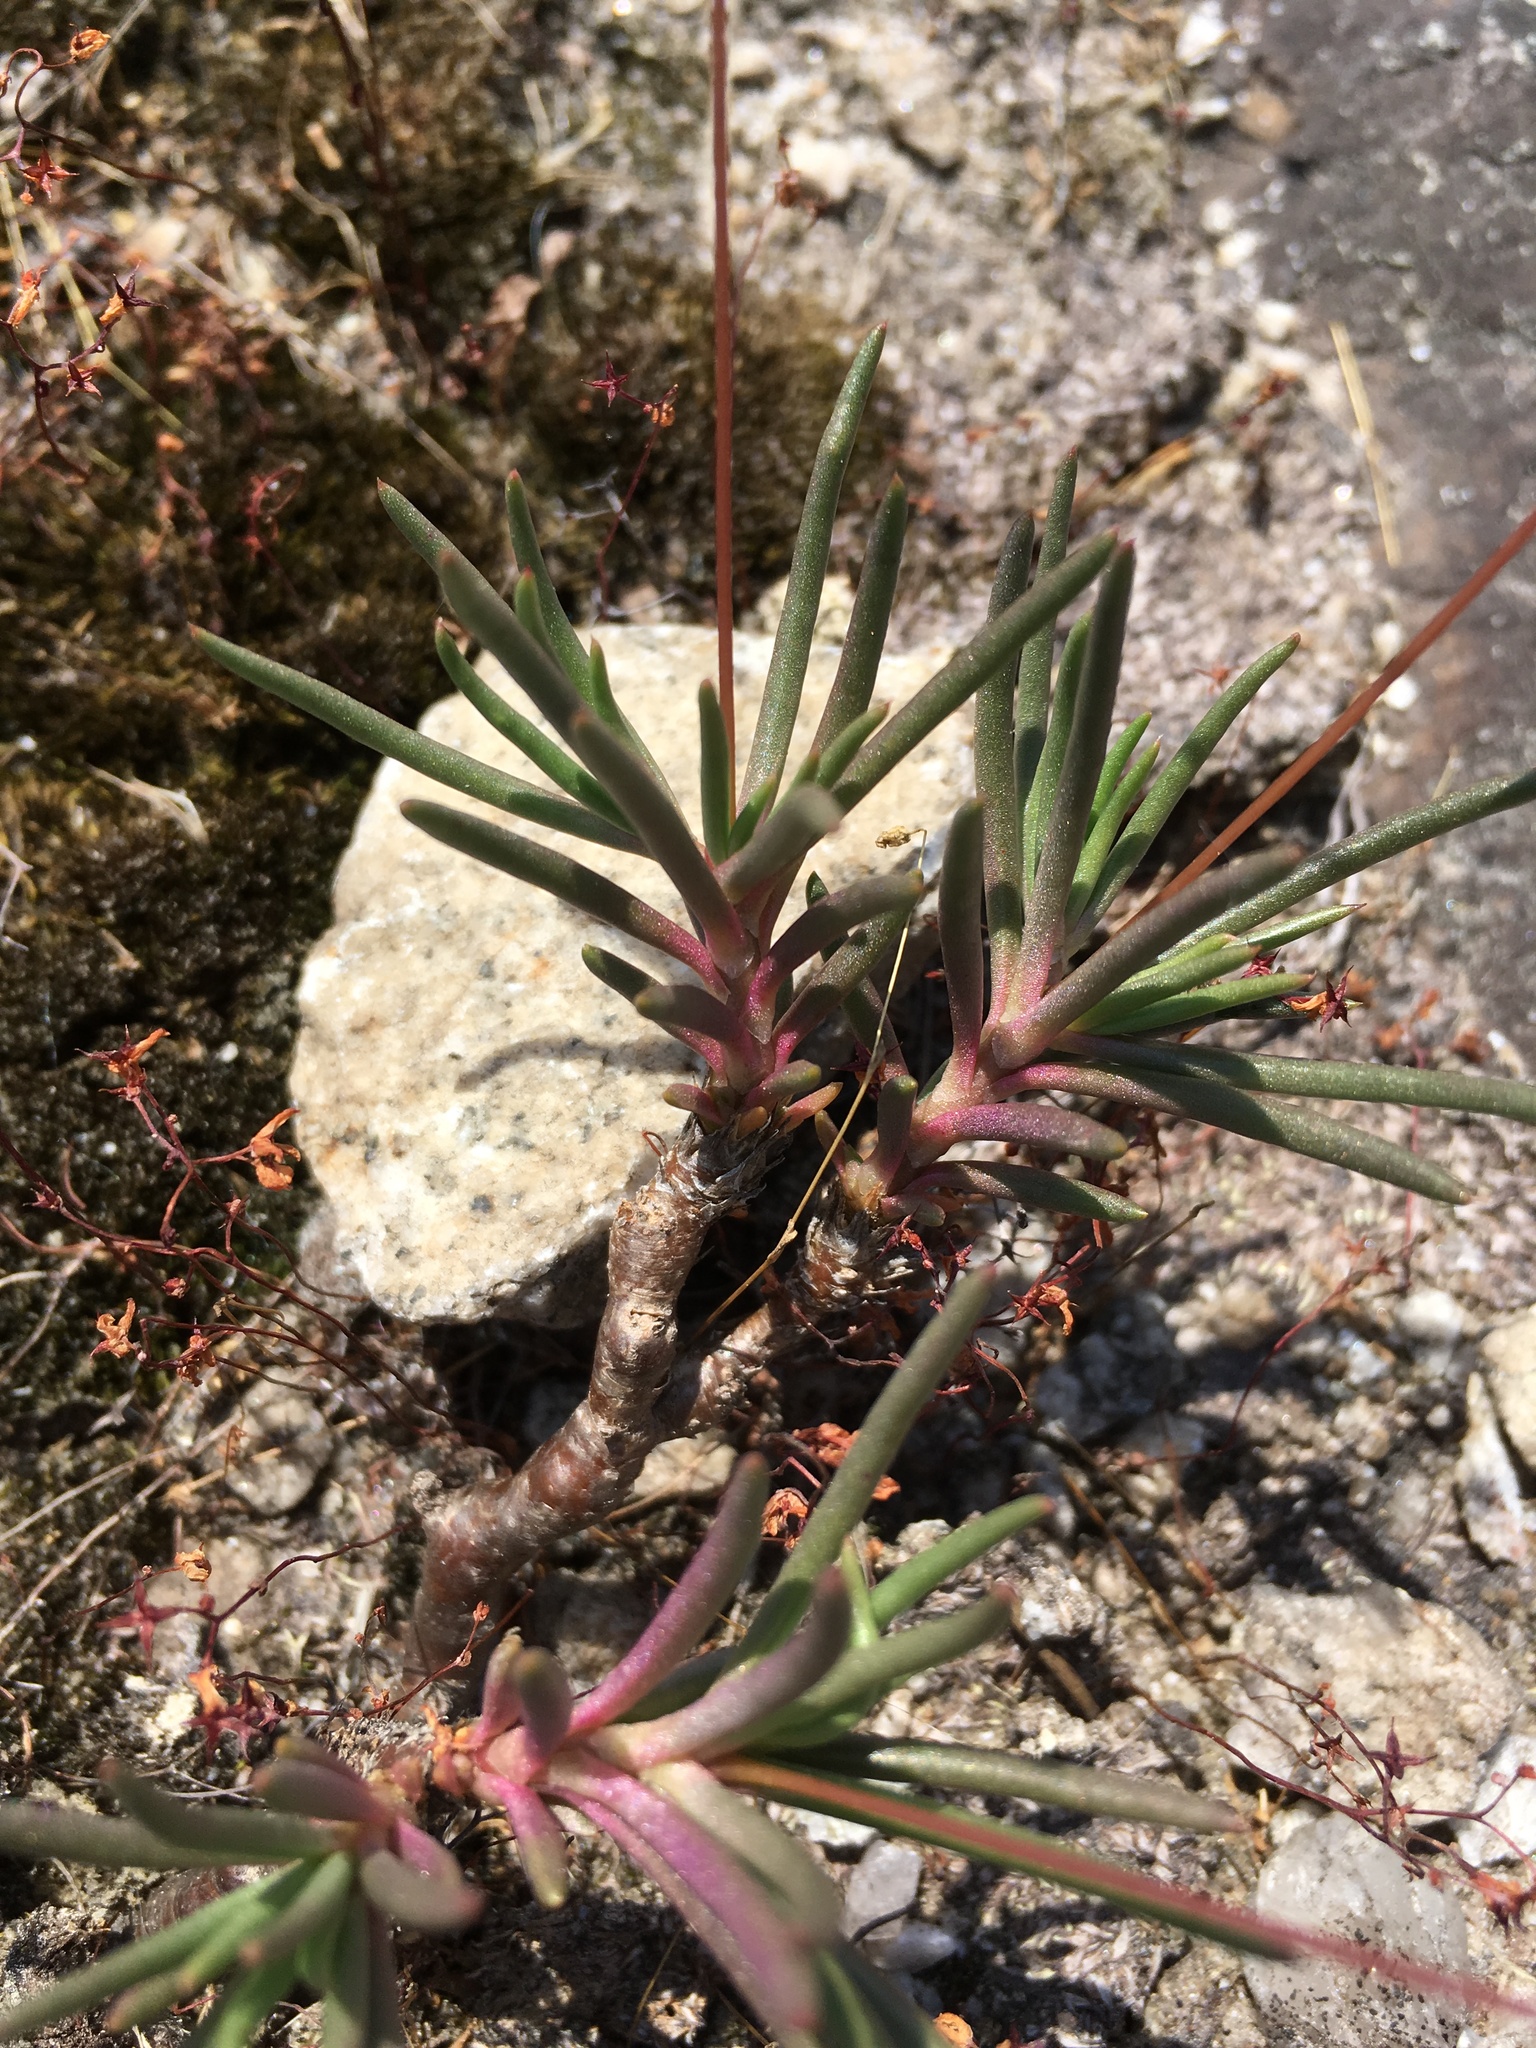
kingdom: Plantae
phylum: Tracheophyta
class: Magnoliopsida
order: Caryophyllales
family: Montiaceae
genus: Phemeranthus
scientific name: Phemeranthus teretifolius
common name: Quill fameflower
